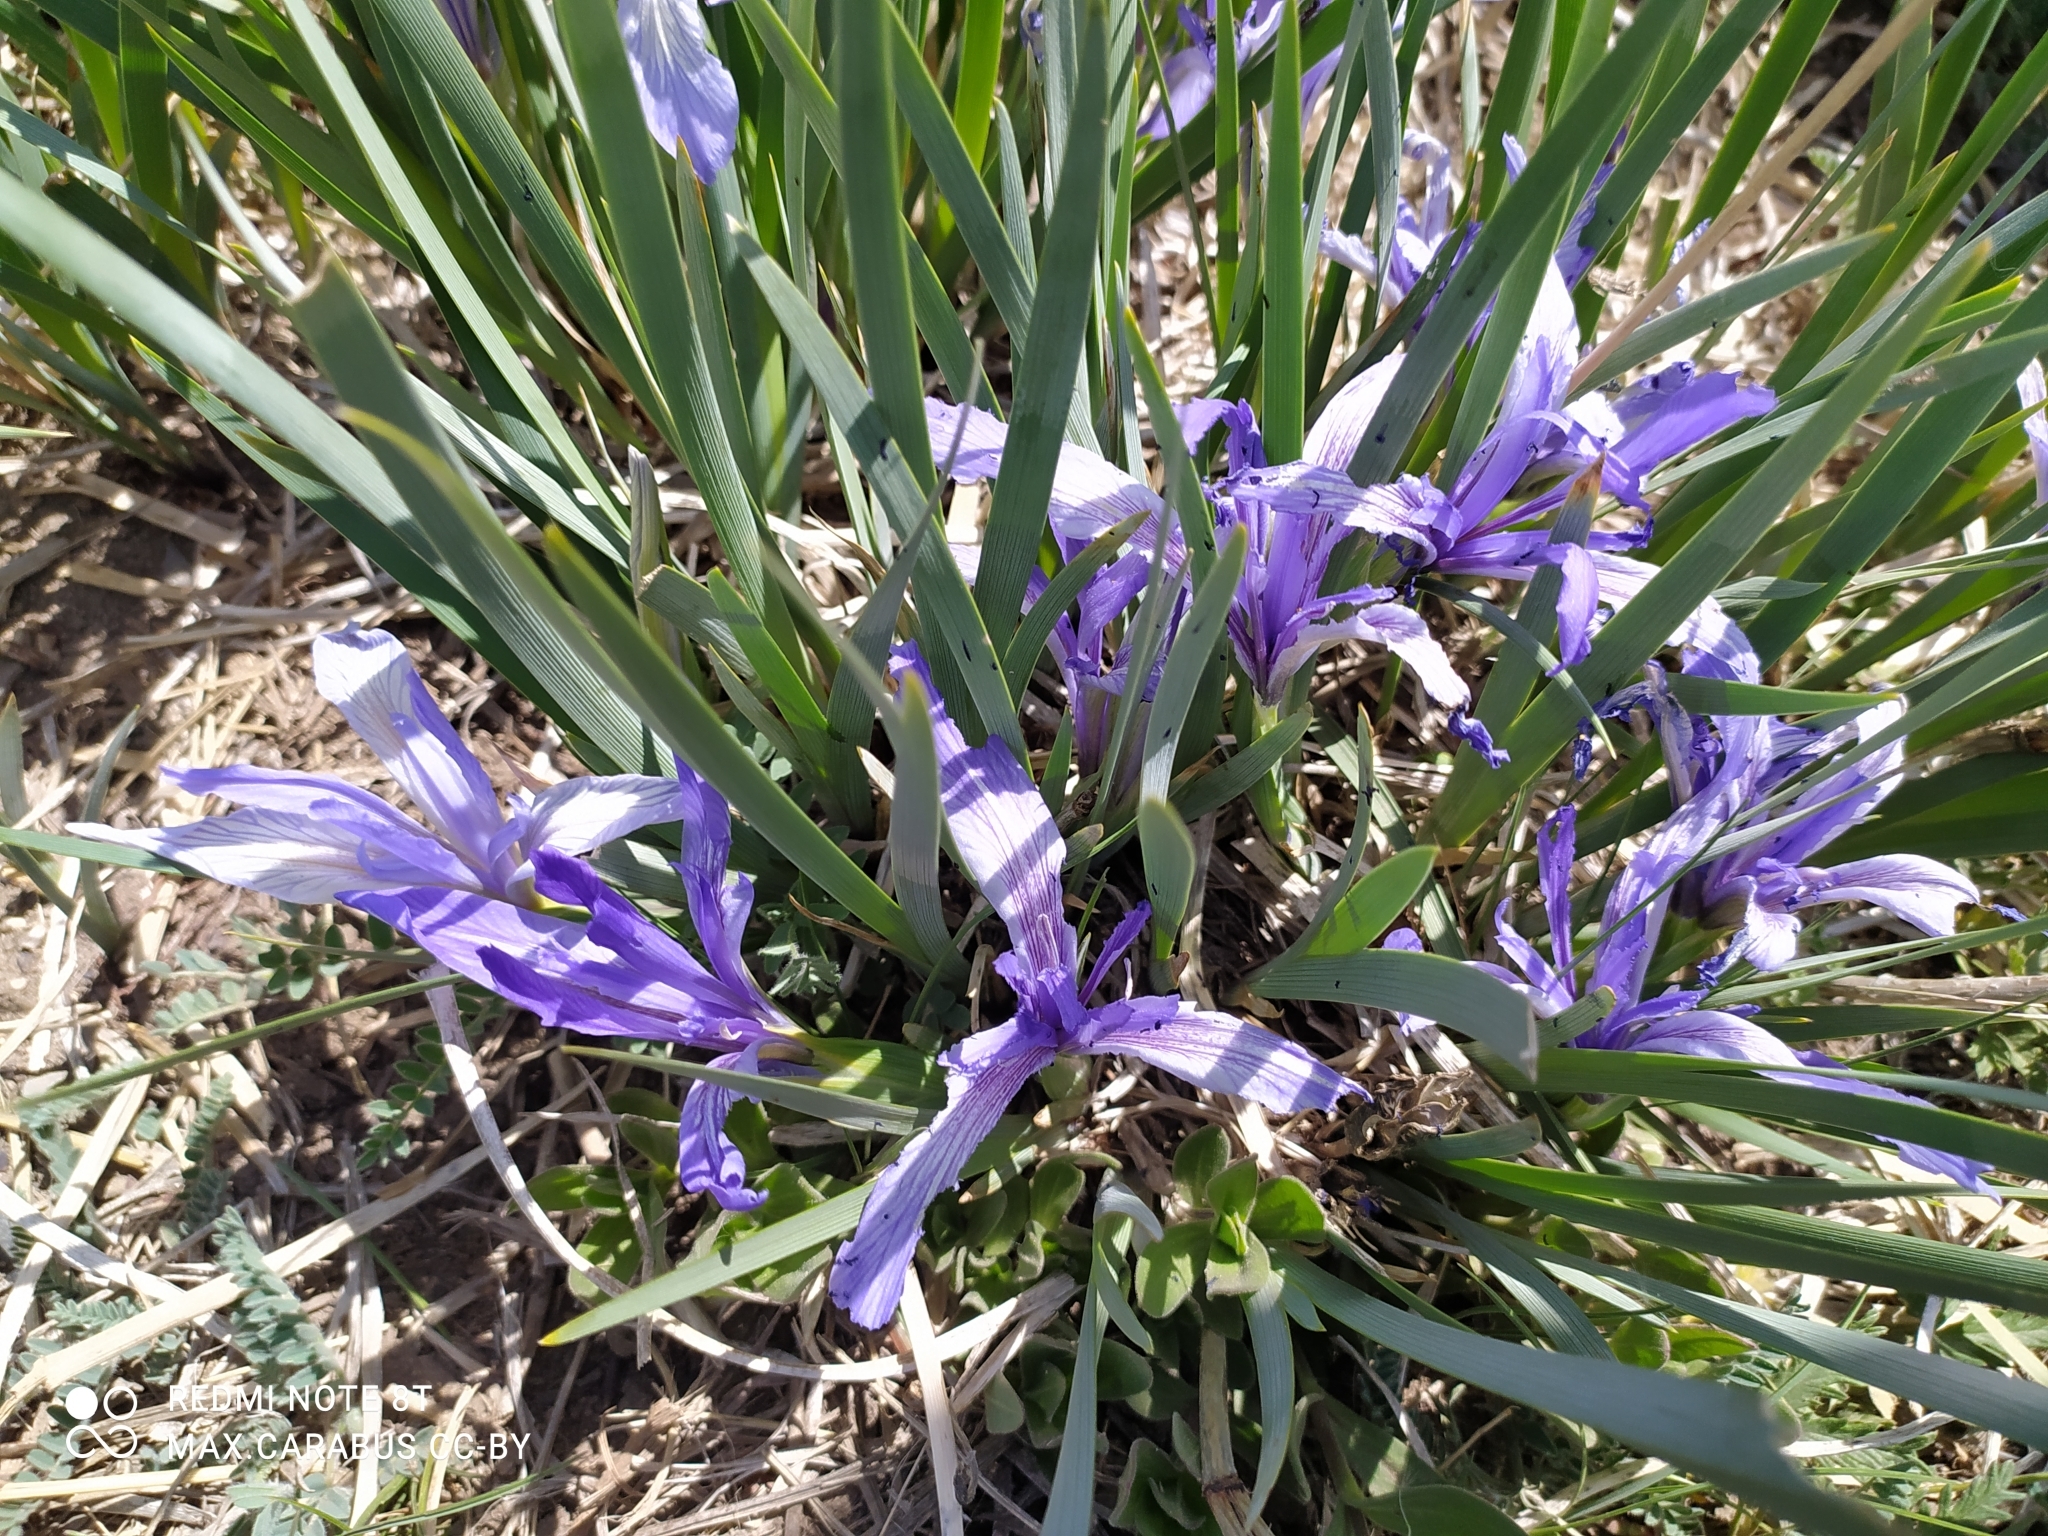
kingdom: Plantae
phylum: Tracheophyta
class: Liliopsida
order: Asparagales
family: Iridaceae
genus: Iris
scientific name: Iris lactea
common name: White-flower chinese iris
